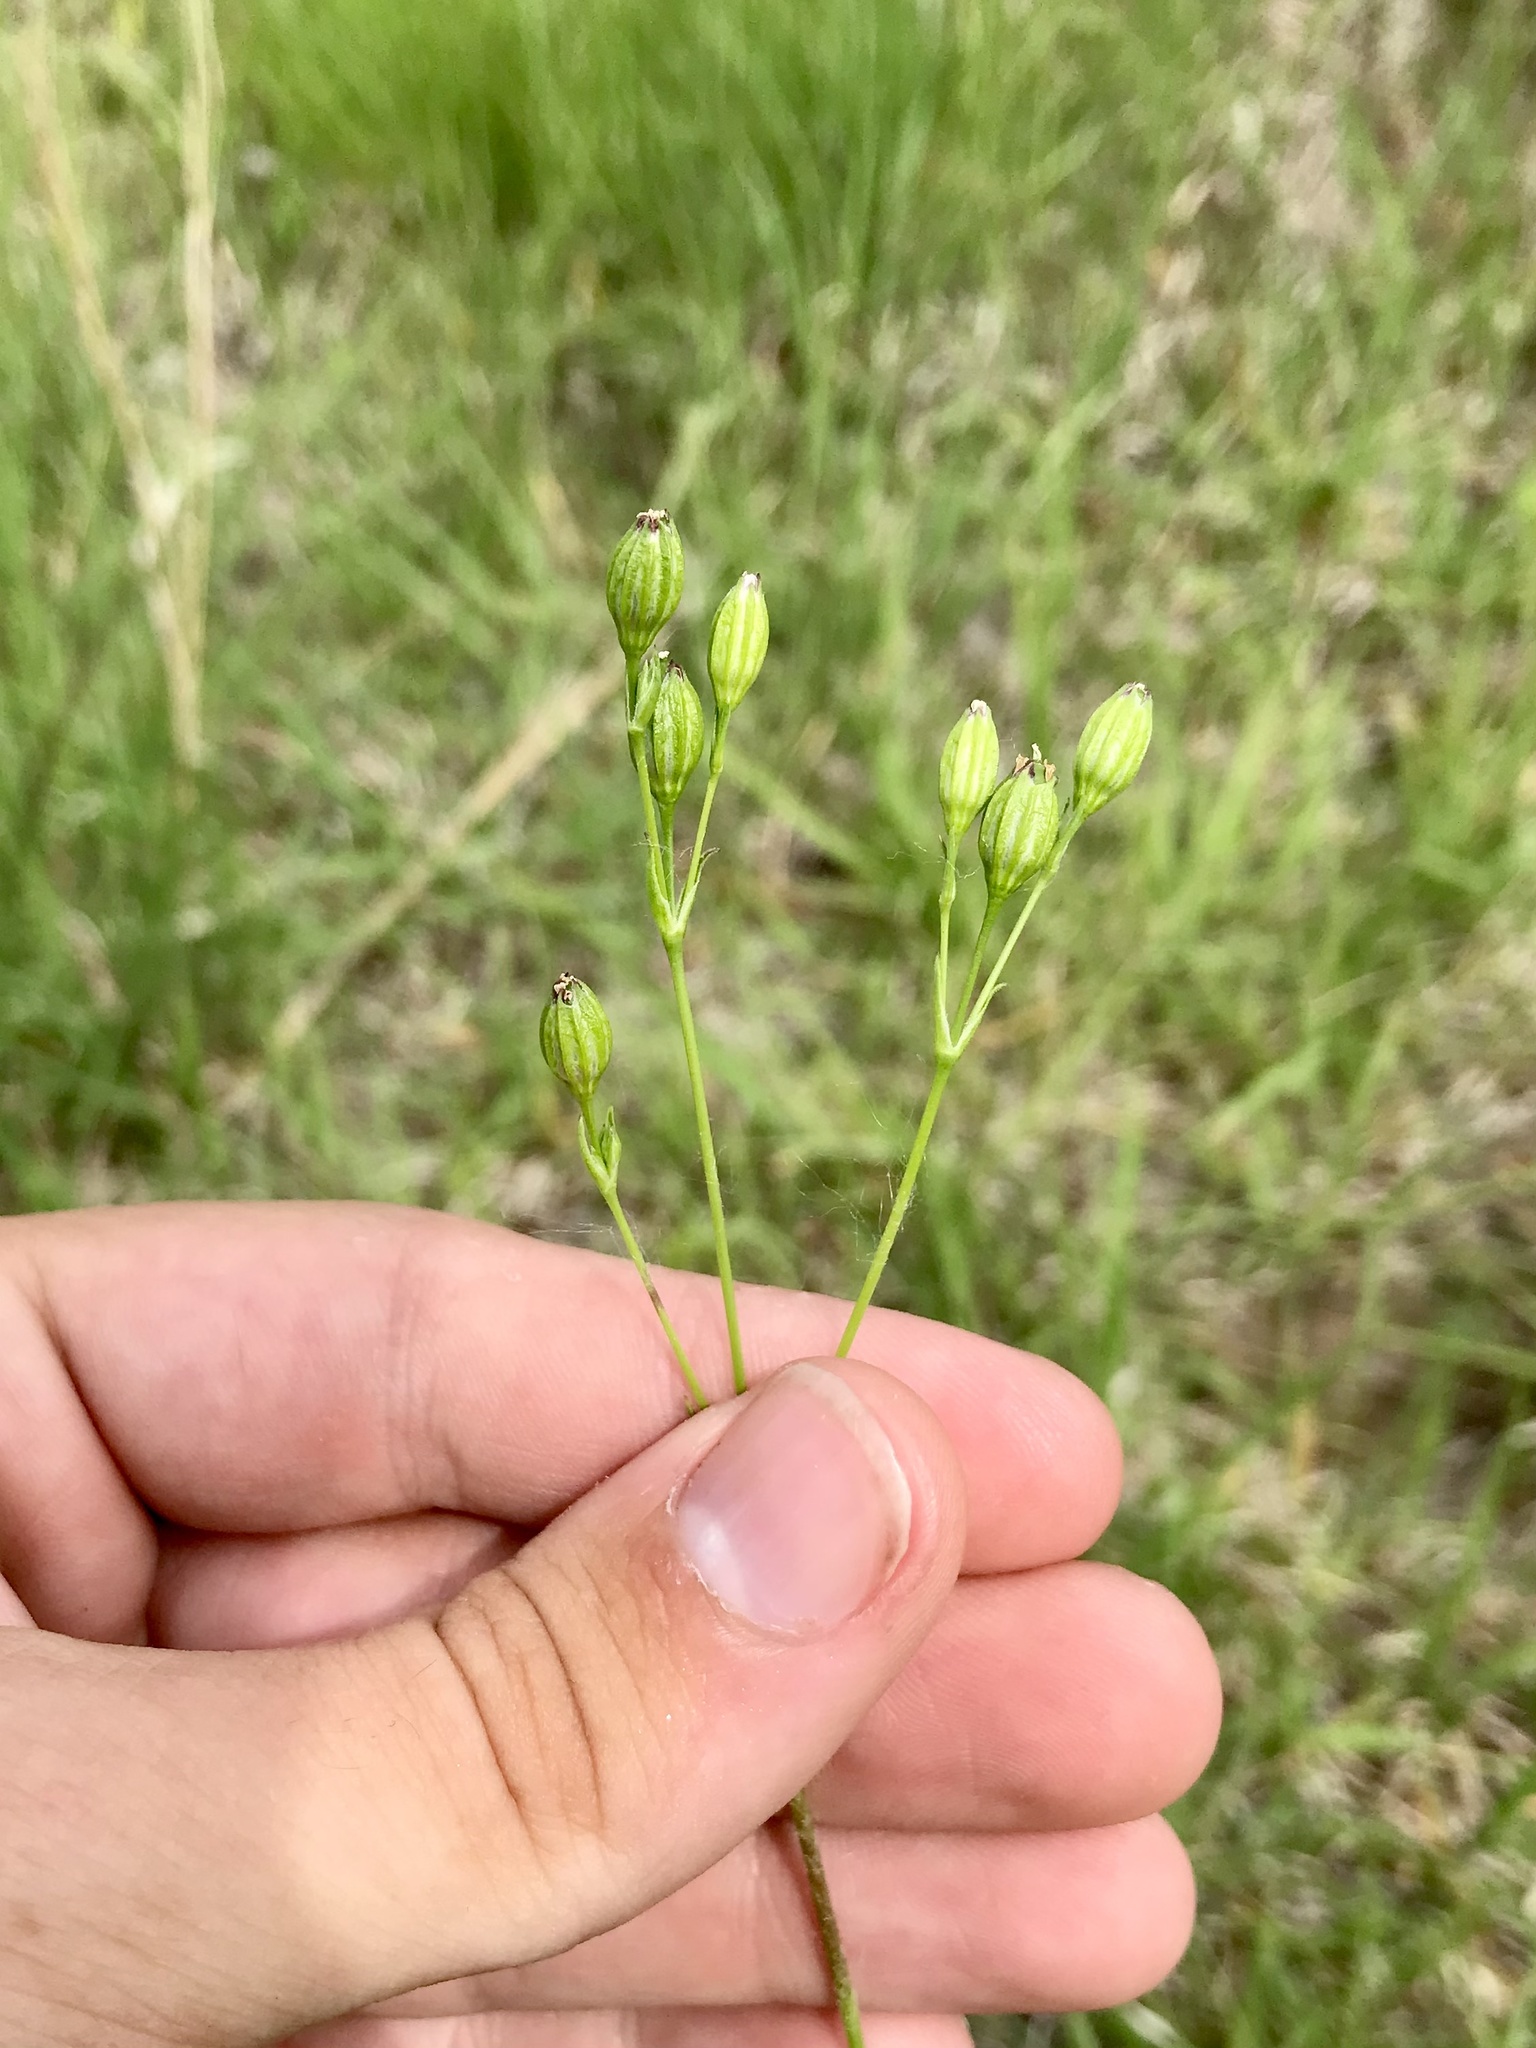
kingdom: Plantae
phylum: Tracheophyta
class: Magnoliopsida
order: Caryophyllales
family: Caryophyllaceae
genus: Silene
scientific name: Silene antirrhina
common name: Sleepy catchfly
